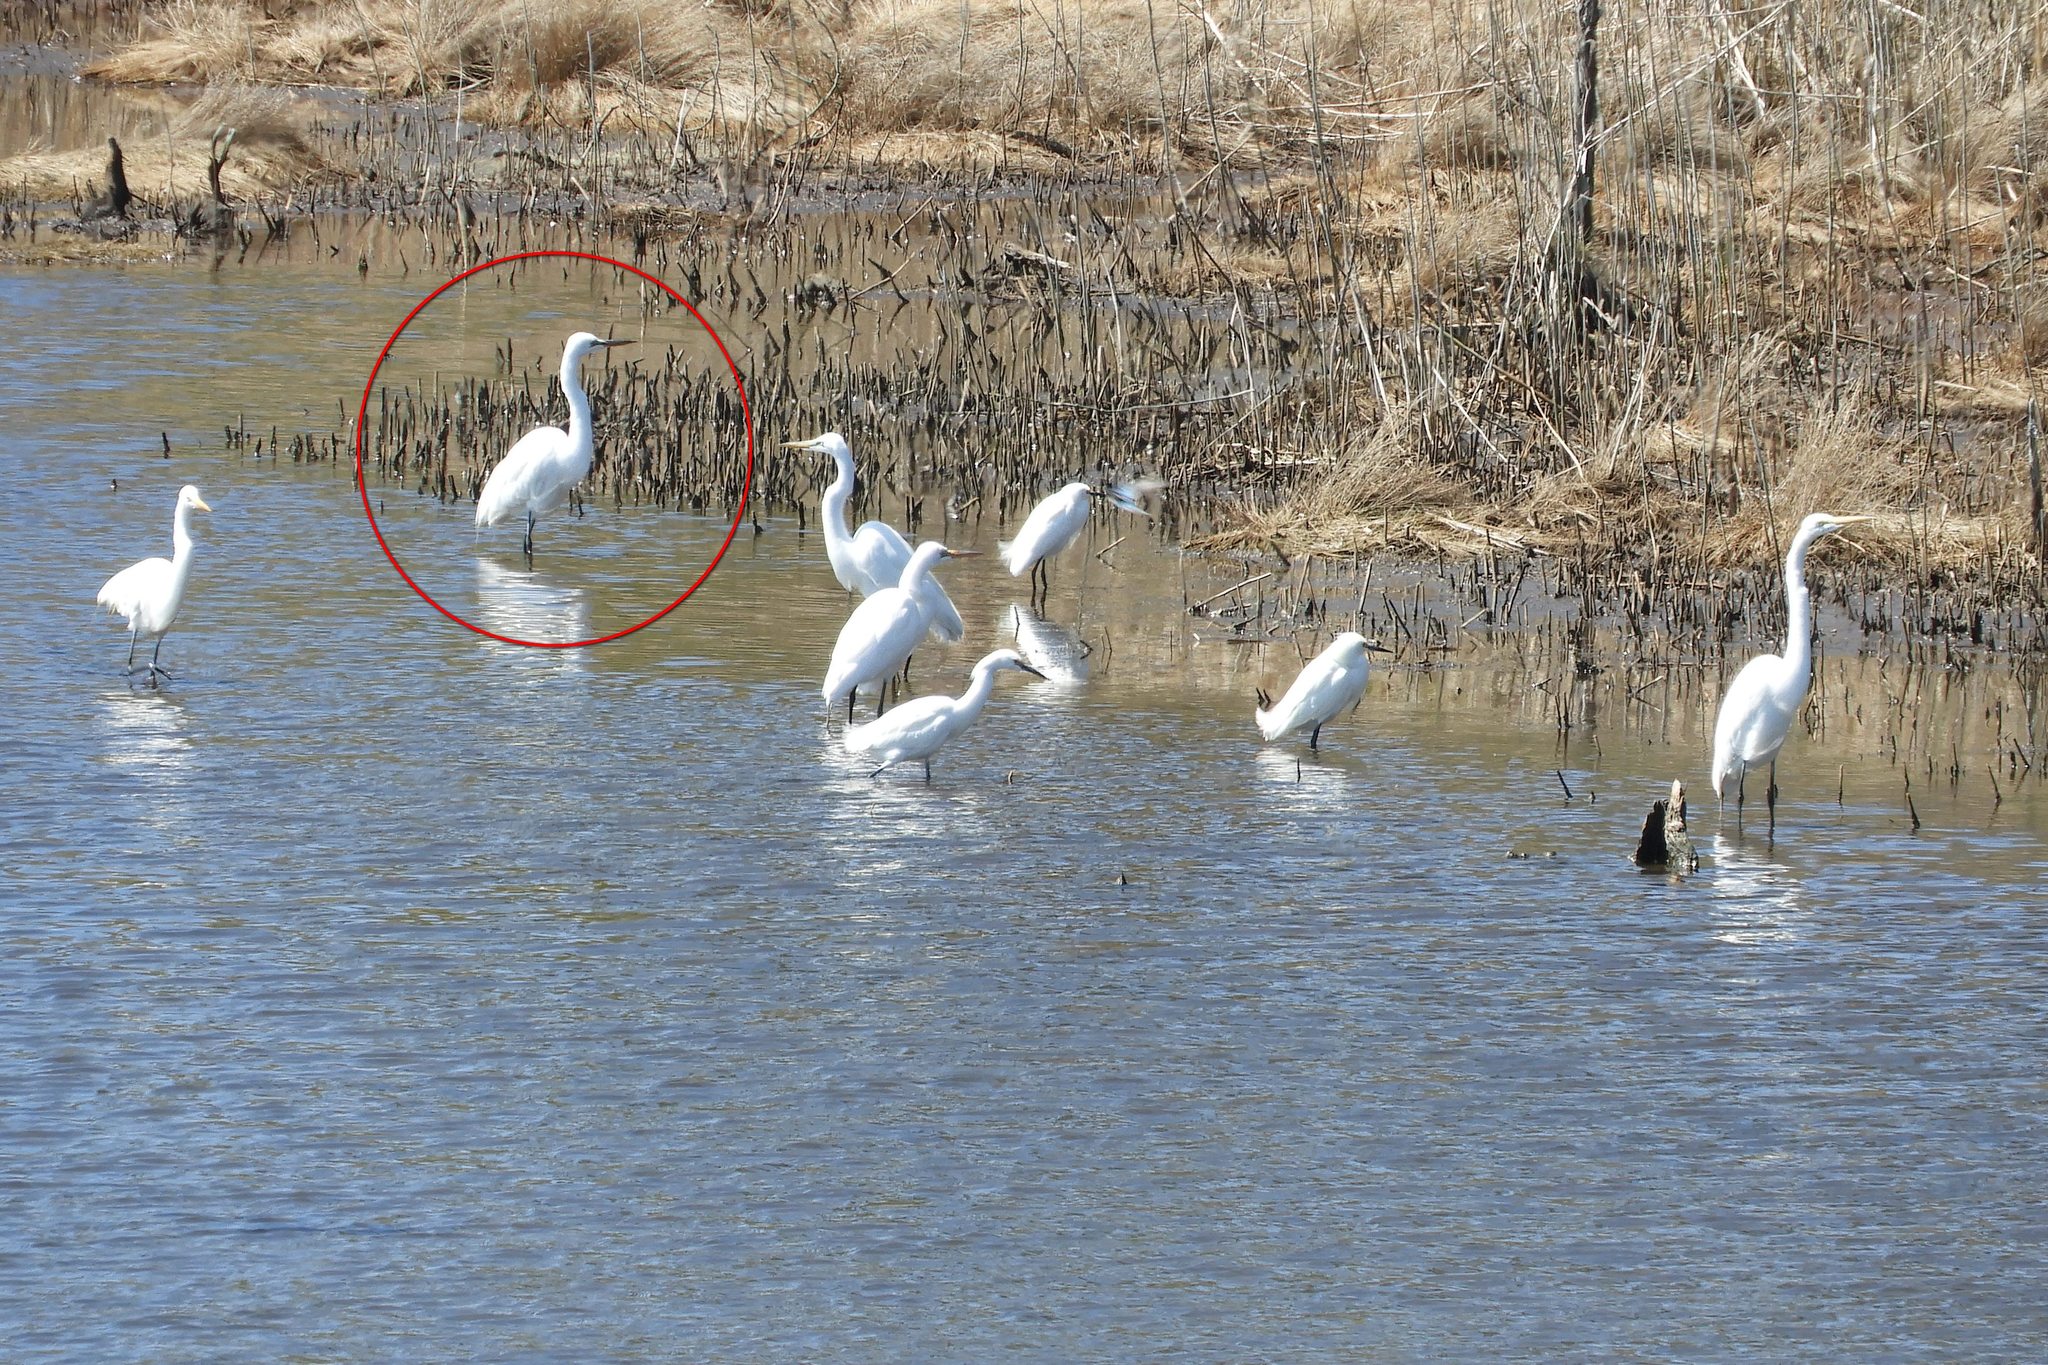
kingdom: Animalia
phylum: Chordata
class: Aves
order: Pelecaniformes
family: Ardeidae
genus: Ardea
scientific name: Ardea alba
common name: Great egret
